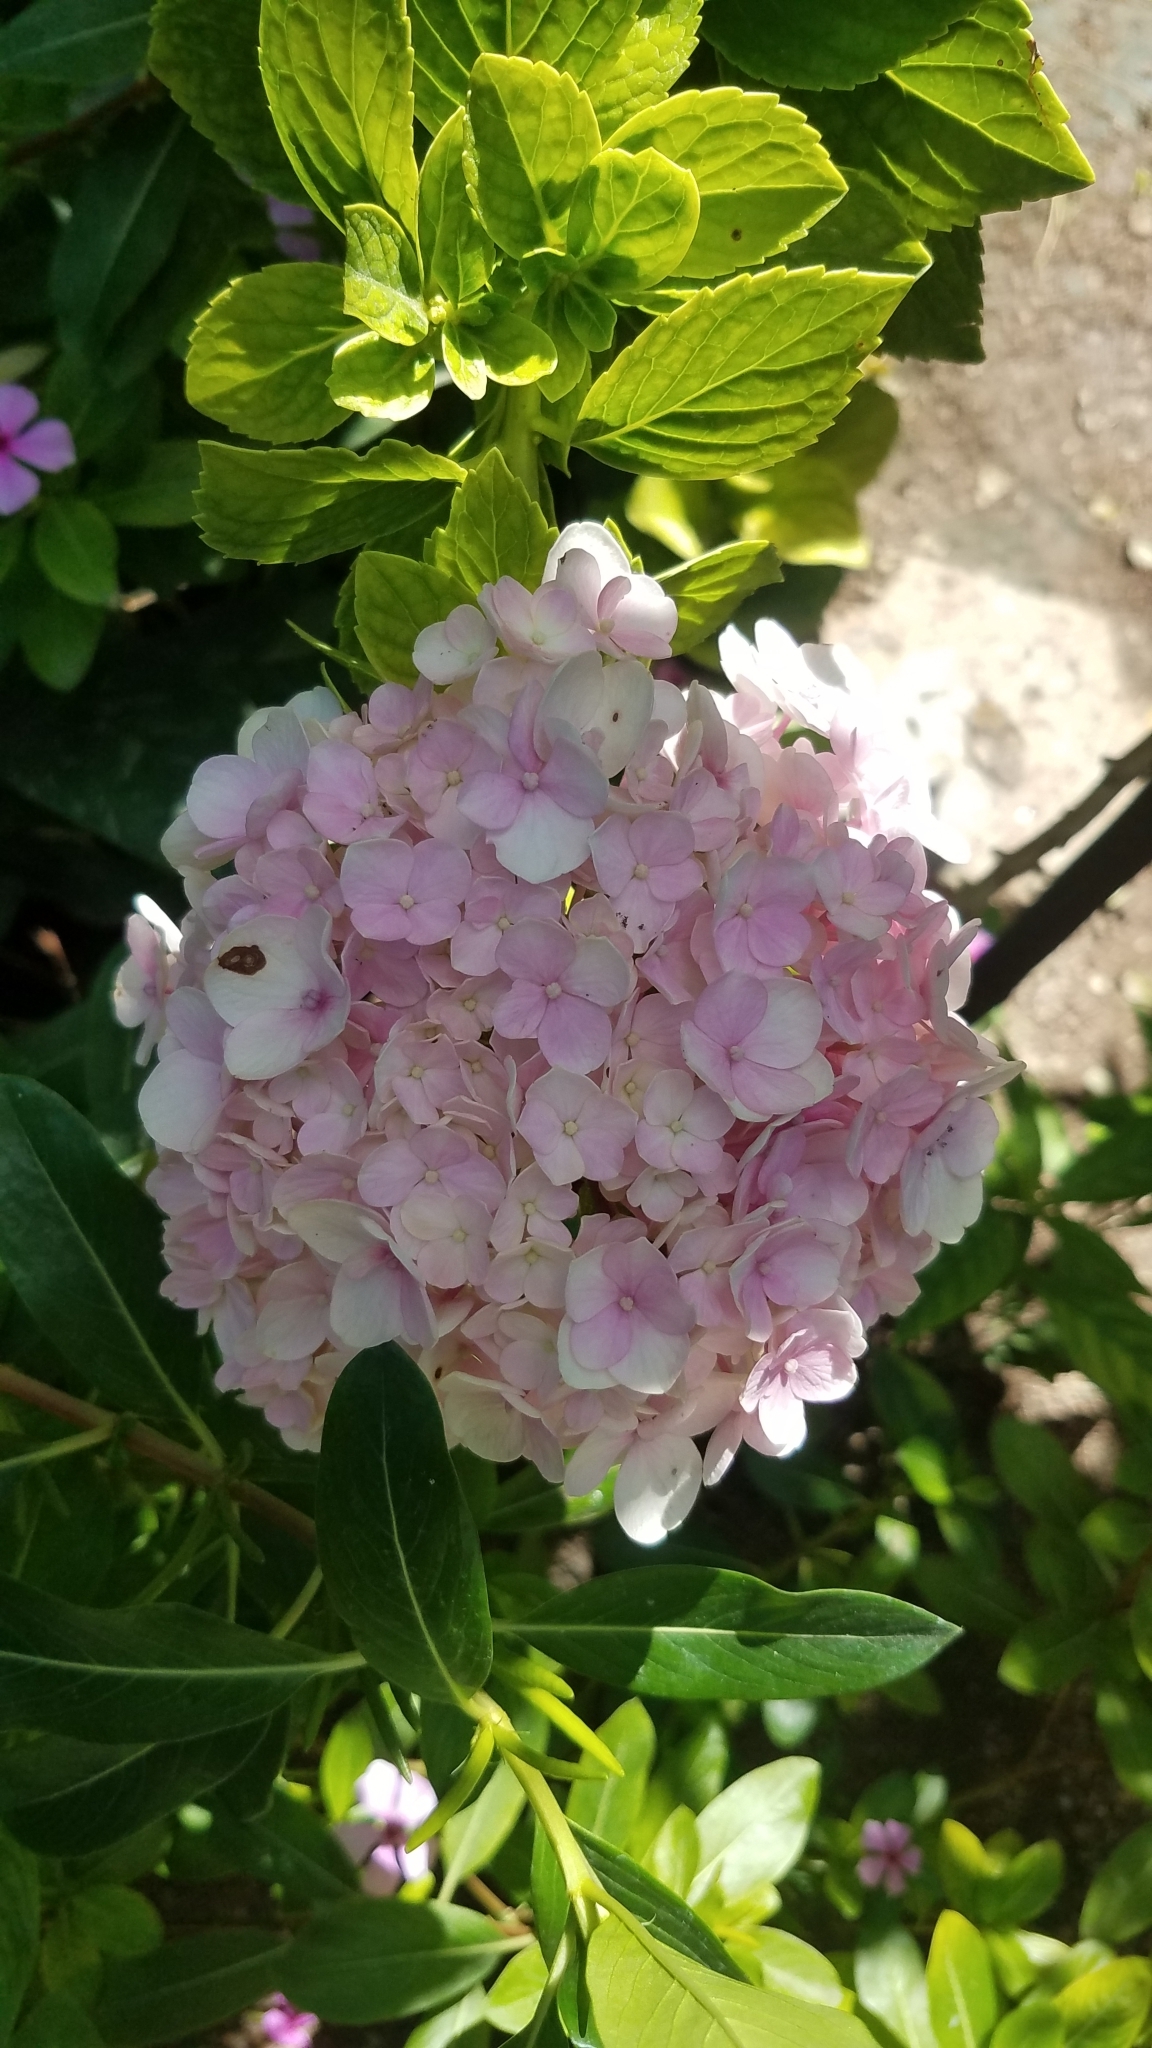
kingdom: Plantae
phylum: Tracheophyta
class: Magnoliopsida
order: Cornales
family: Hydrangeaceae
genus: Hydrangea
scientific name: Hydrangea macrophylla
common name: Hydrangea
